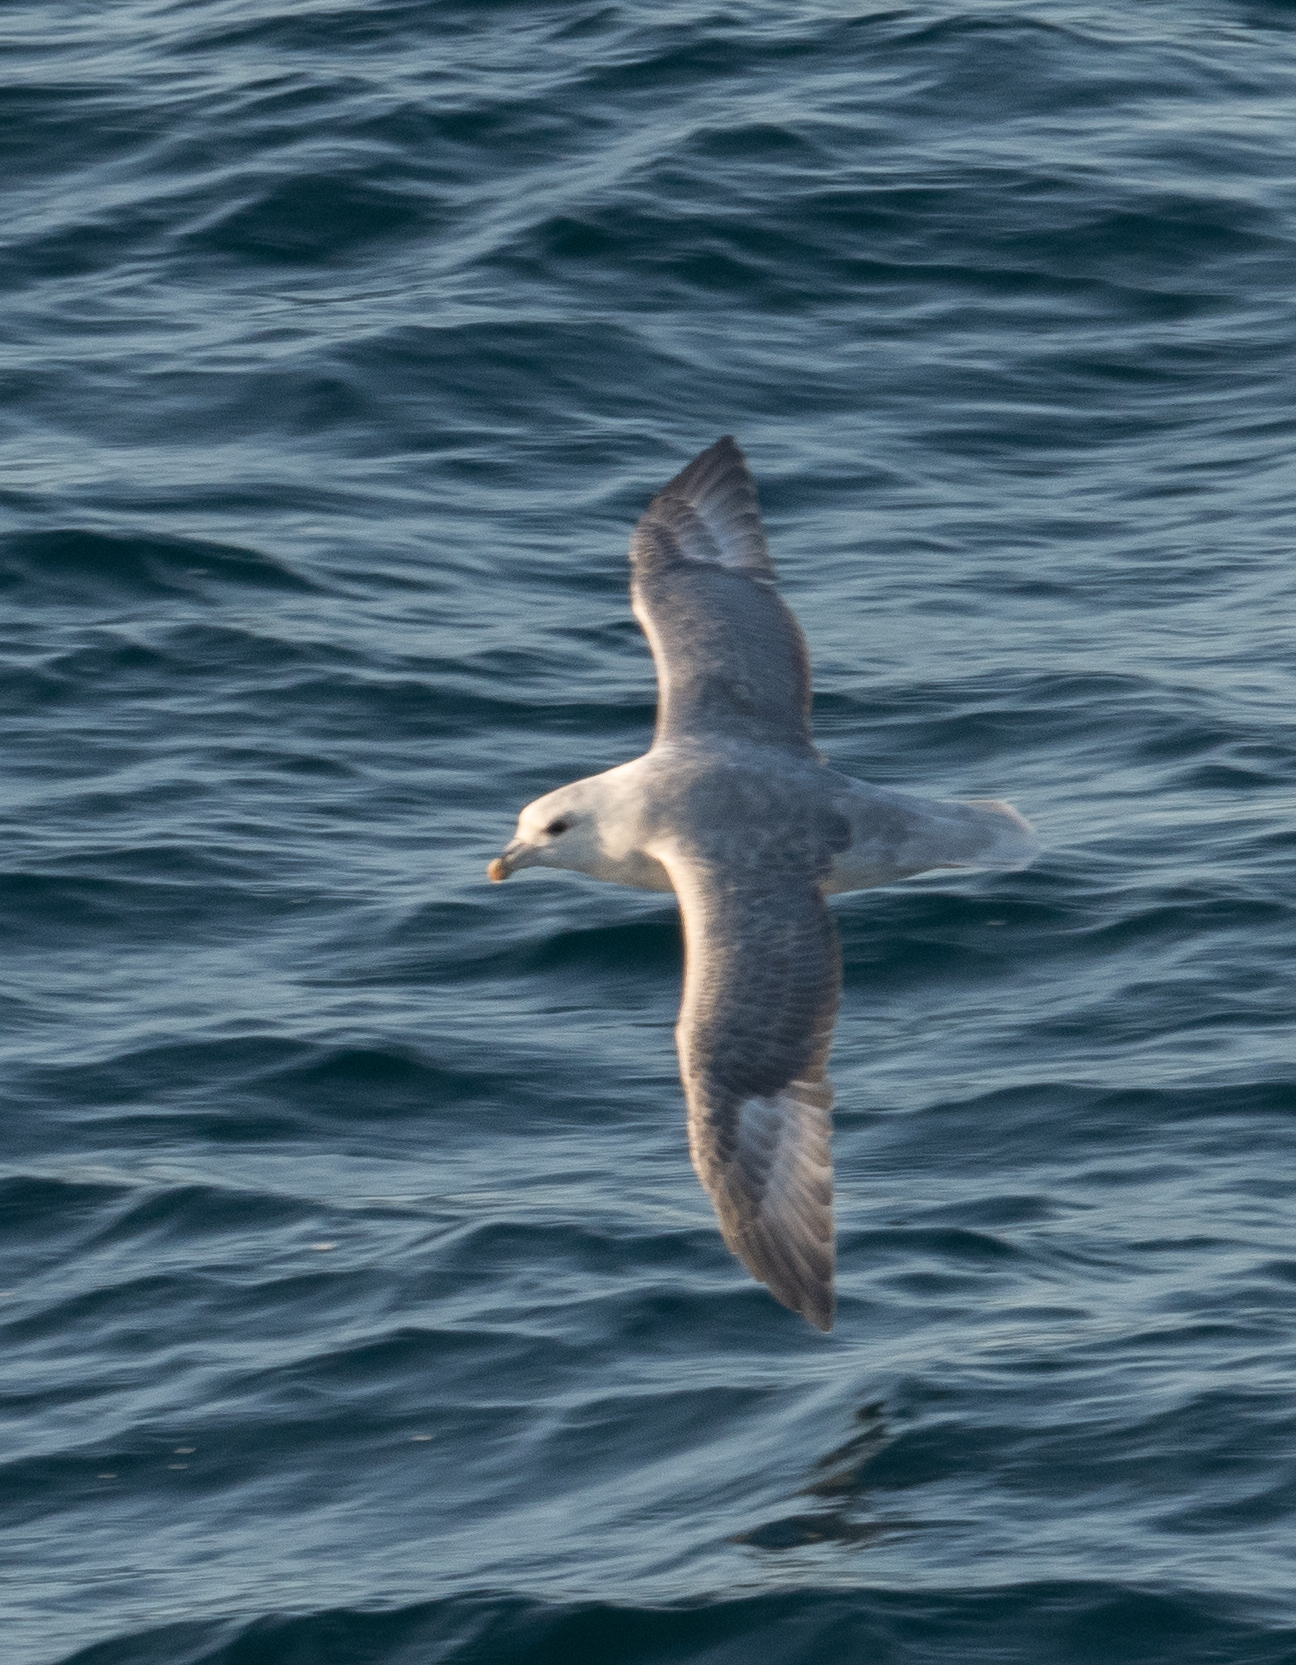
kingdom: Animalia
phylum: Chordata
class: Aves
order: Procellariiformes
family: Procellariidae
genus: Fulmarus
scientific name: Fulmarus glacialis
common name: Northern fulmar
